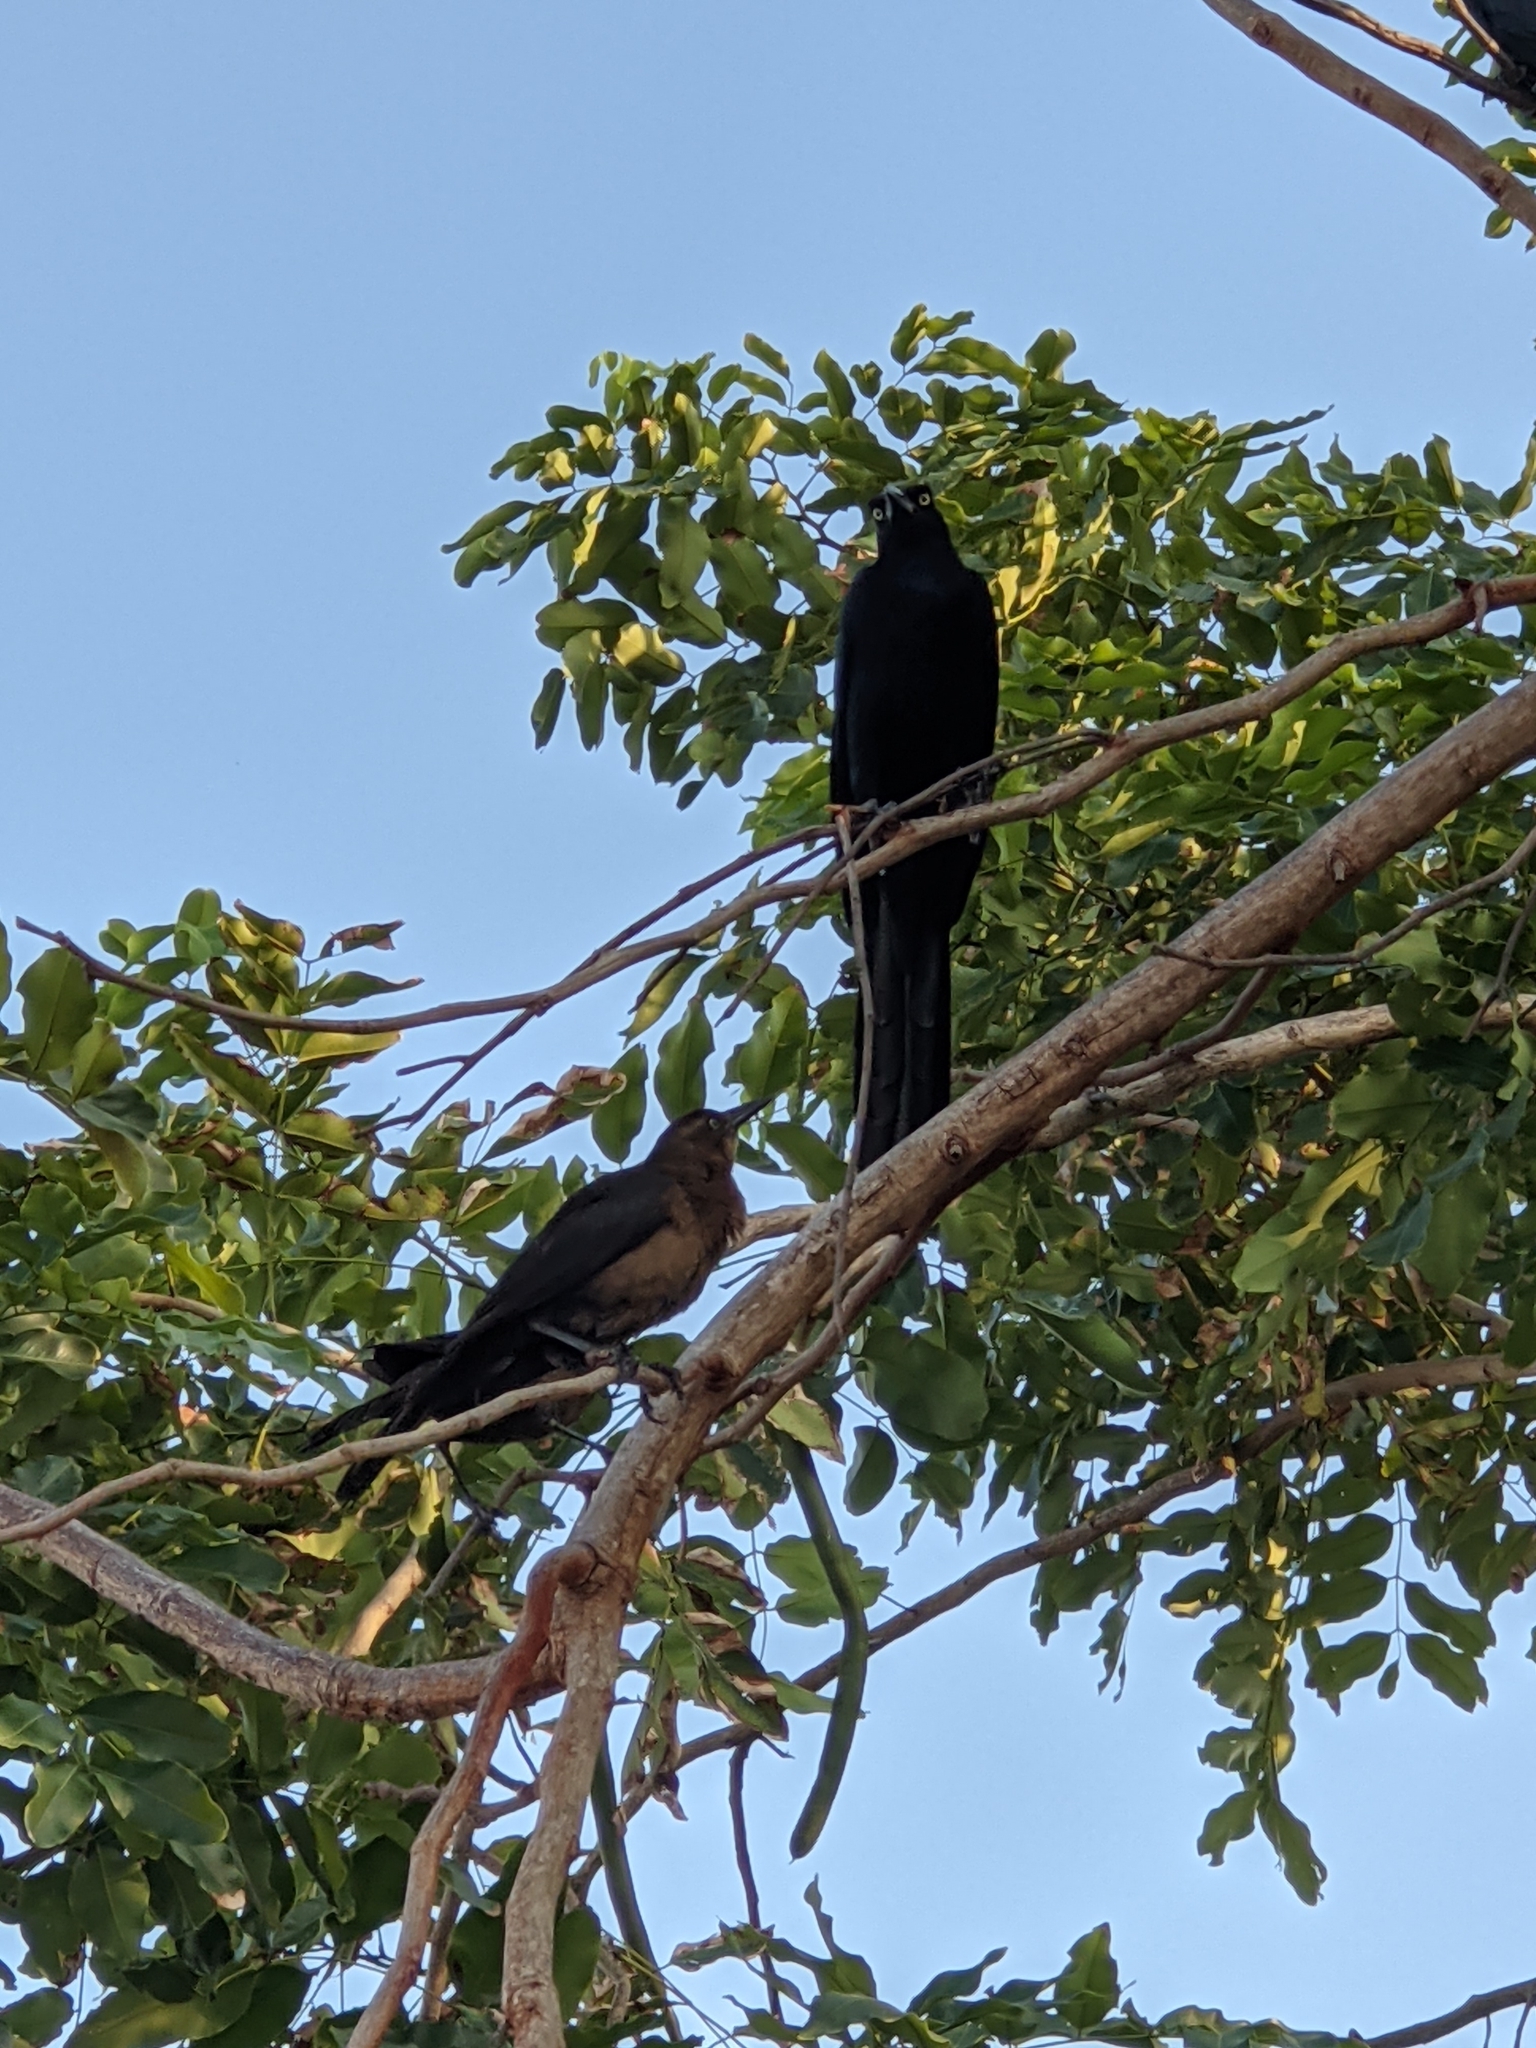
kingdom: Animalia
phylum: Chordata
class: Aves
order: Passeriformes
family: Icteridae
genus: Quiscalus
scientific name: Quiscalus mexicanus
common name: Great-tailed grackle
